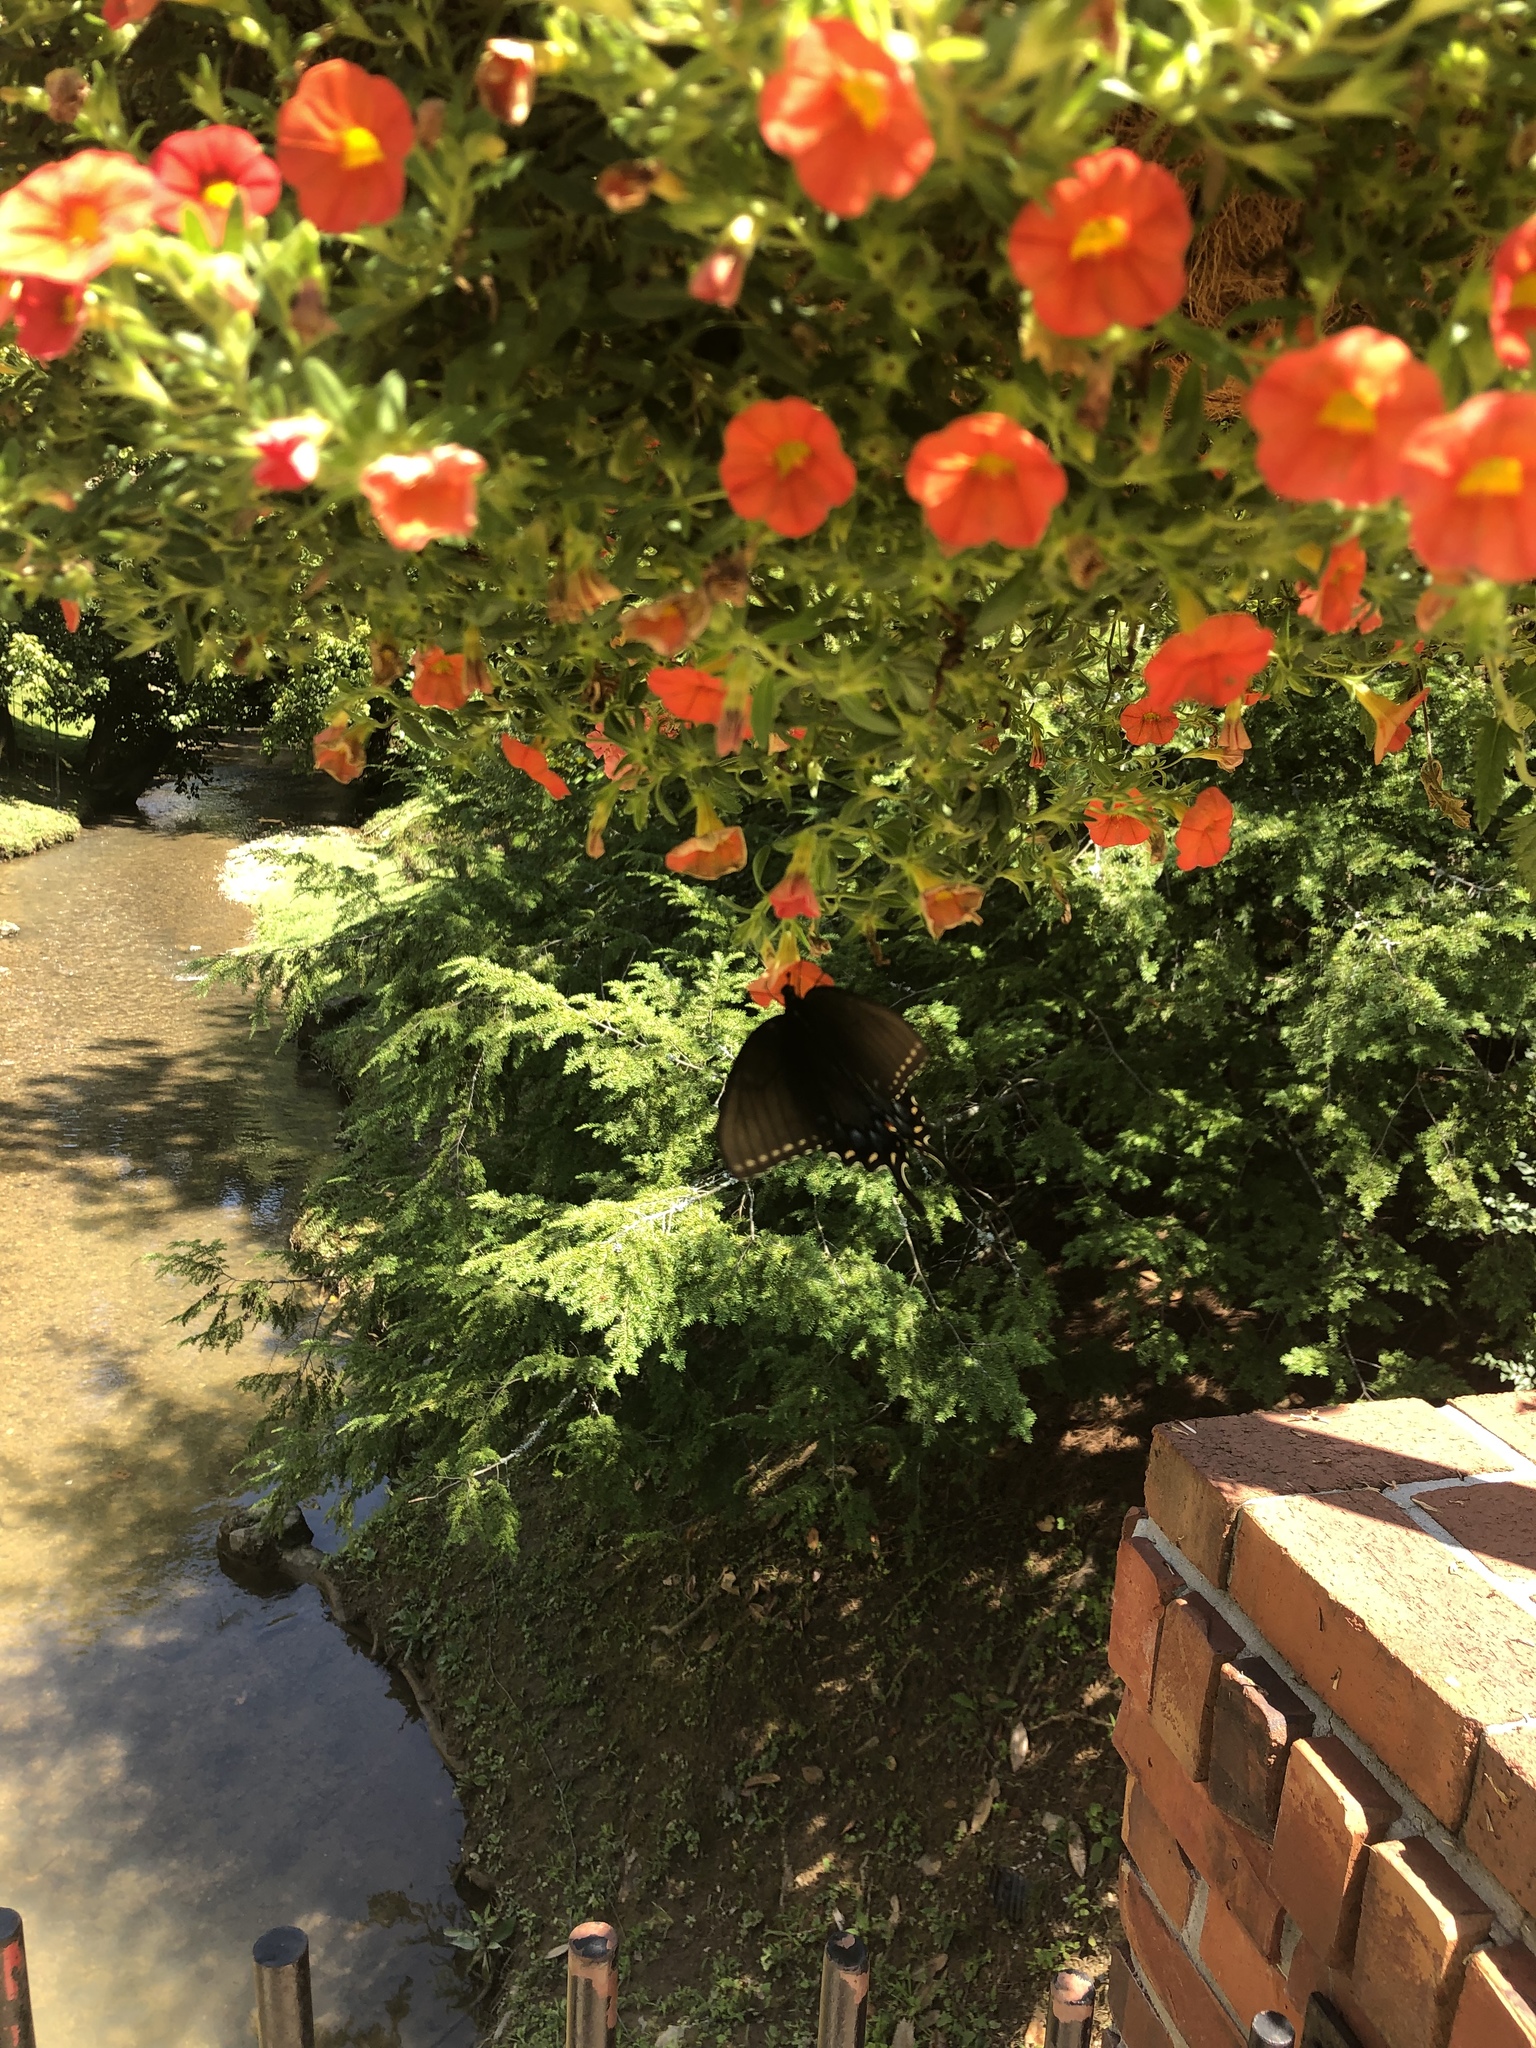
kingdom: Animalia
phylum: Arthropoda
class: Insecta
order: Lepidoptera
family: Papilionidae
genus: Papilio
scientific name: Papilio glaucus
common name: Tiger swallowtail
